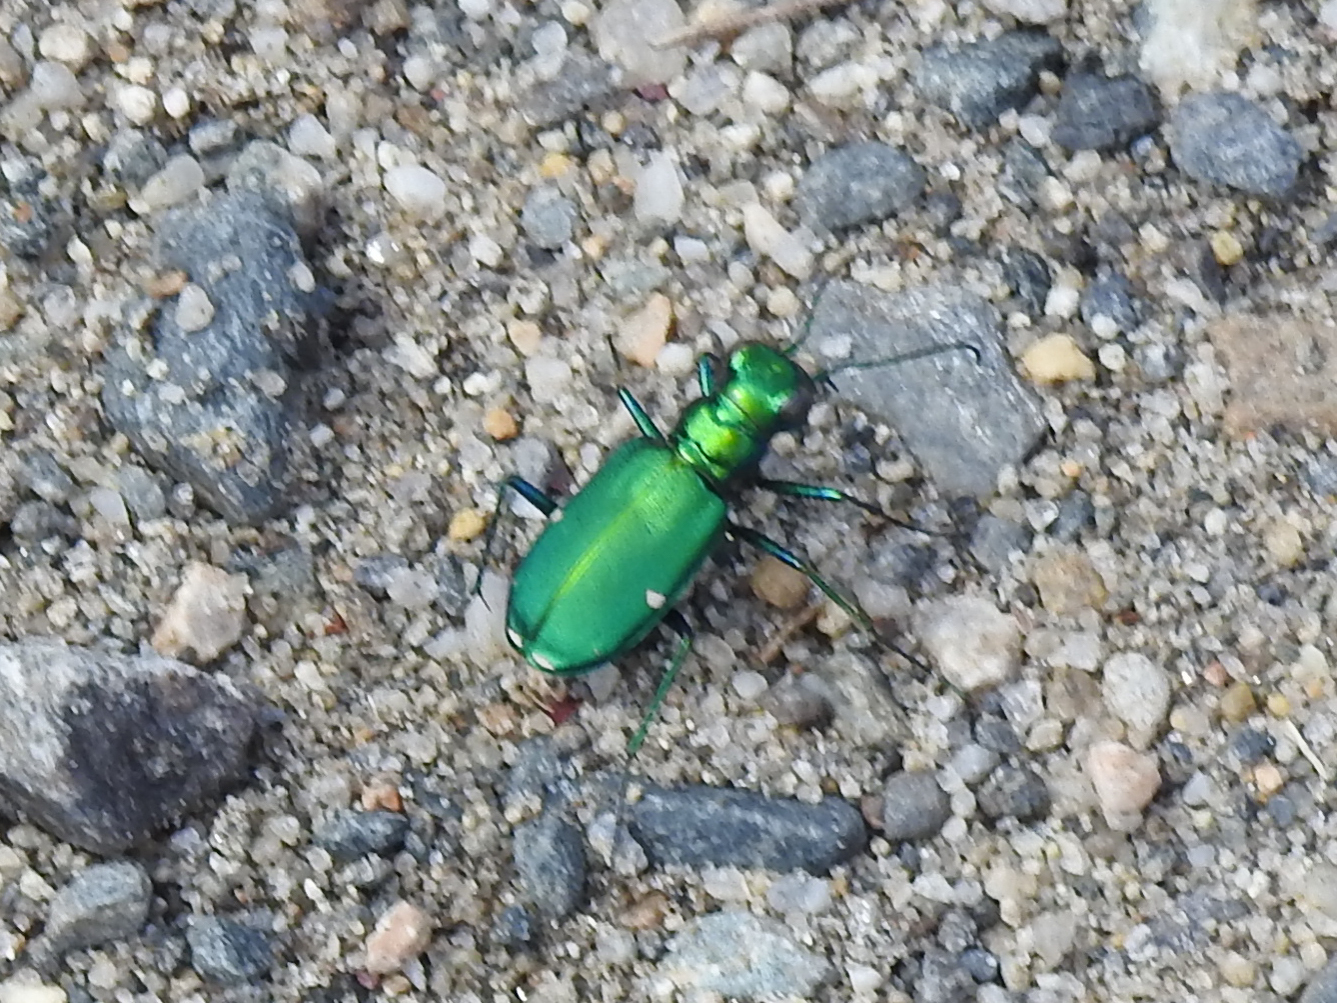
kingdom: Animalia
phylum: Arthropoda
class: Insecta
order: Coleoptera
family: Carabidae
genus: Cicindela
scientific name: Cicindela sexguttata
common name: Six-spotted tiger beetle
